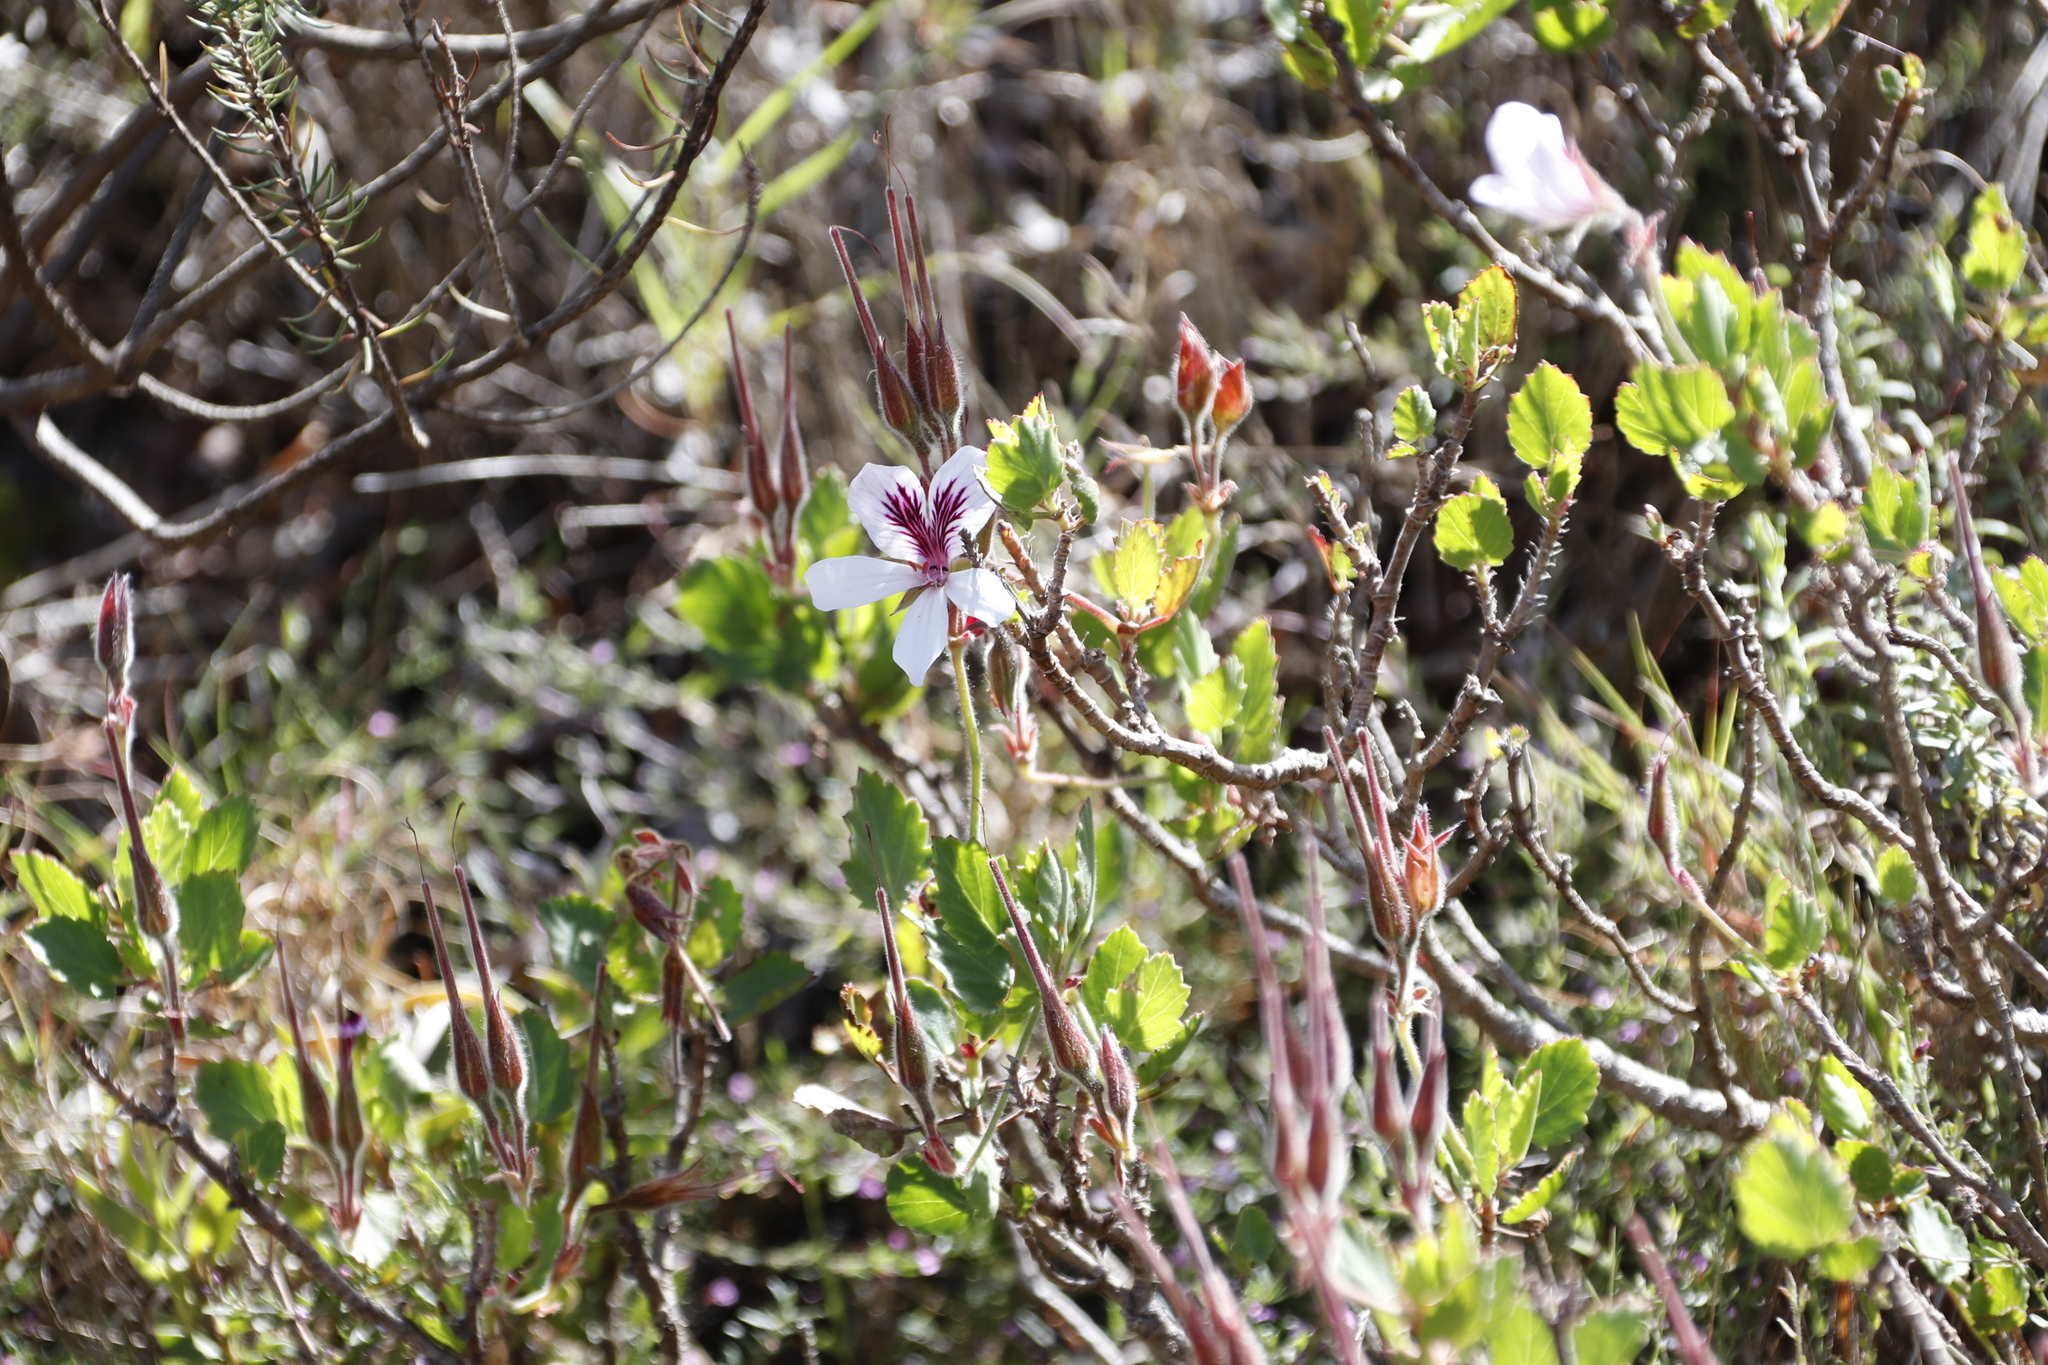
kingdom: Plantae
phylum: Tracheophyta
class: Magnoliopsida
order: Geraniales
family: Geraniaceae
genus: Pelargonium
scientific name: Pelargonium betulinum
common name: Birch-leaf pelargonium
